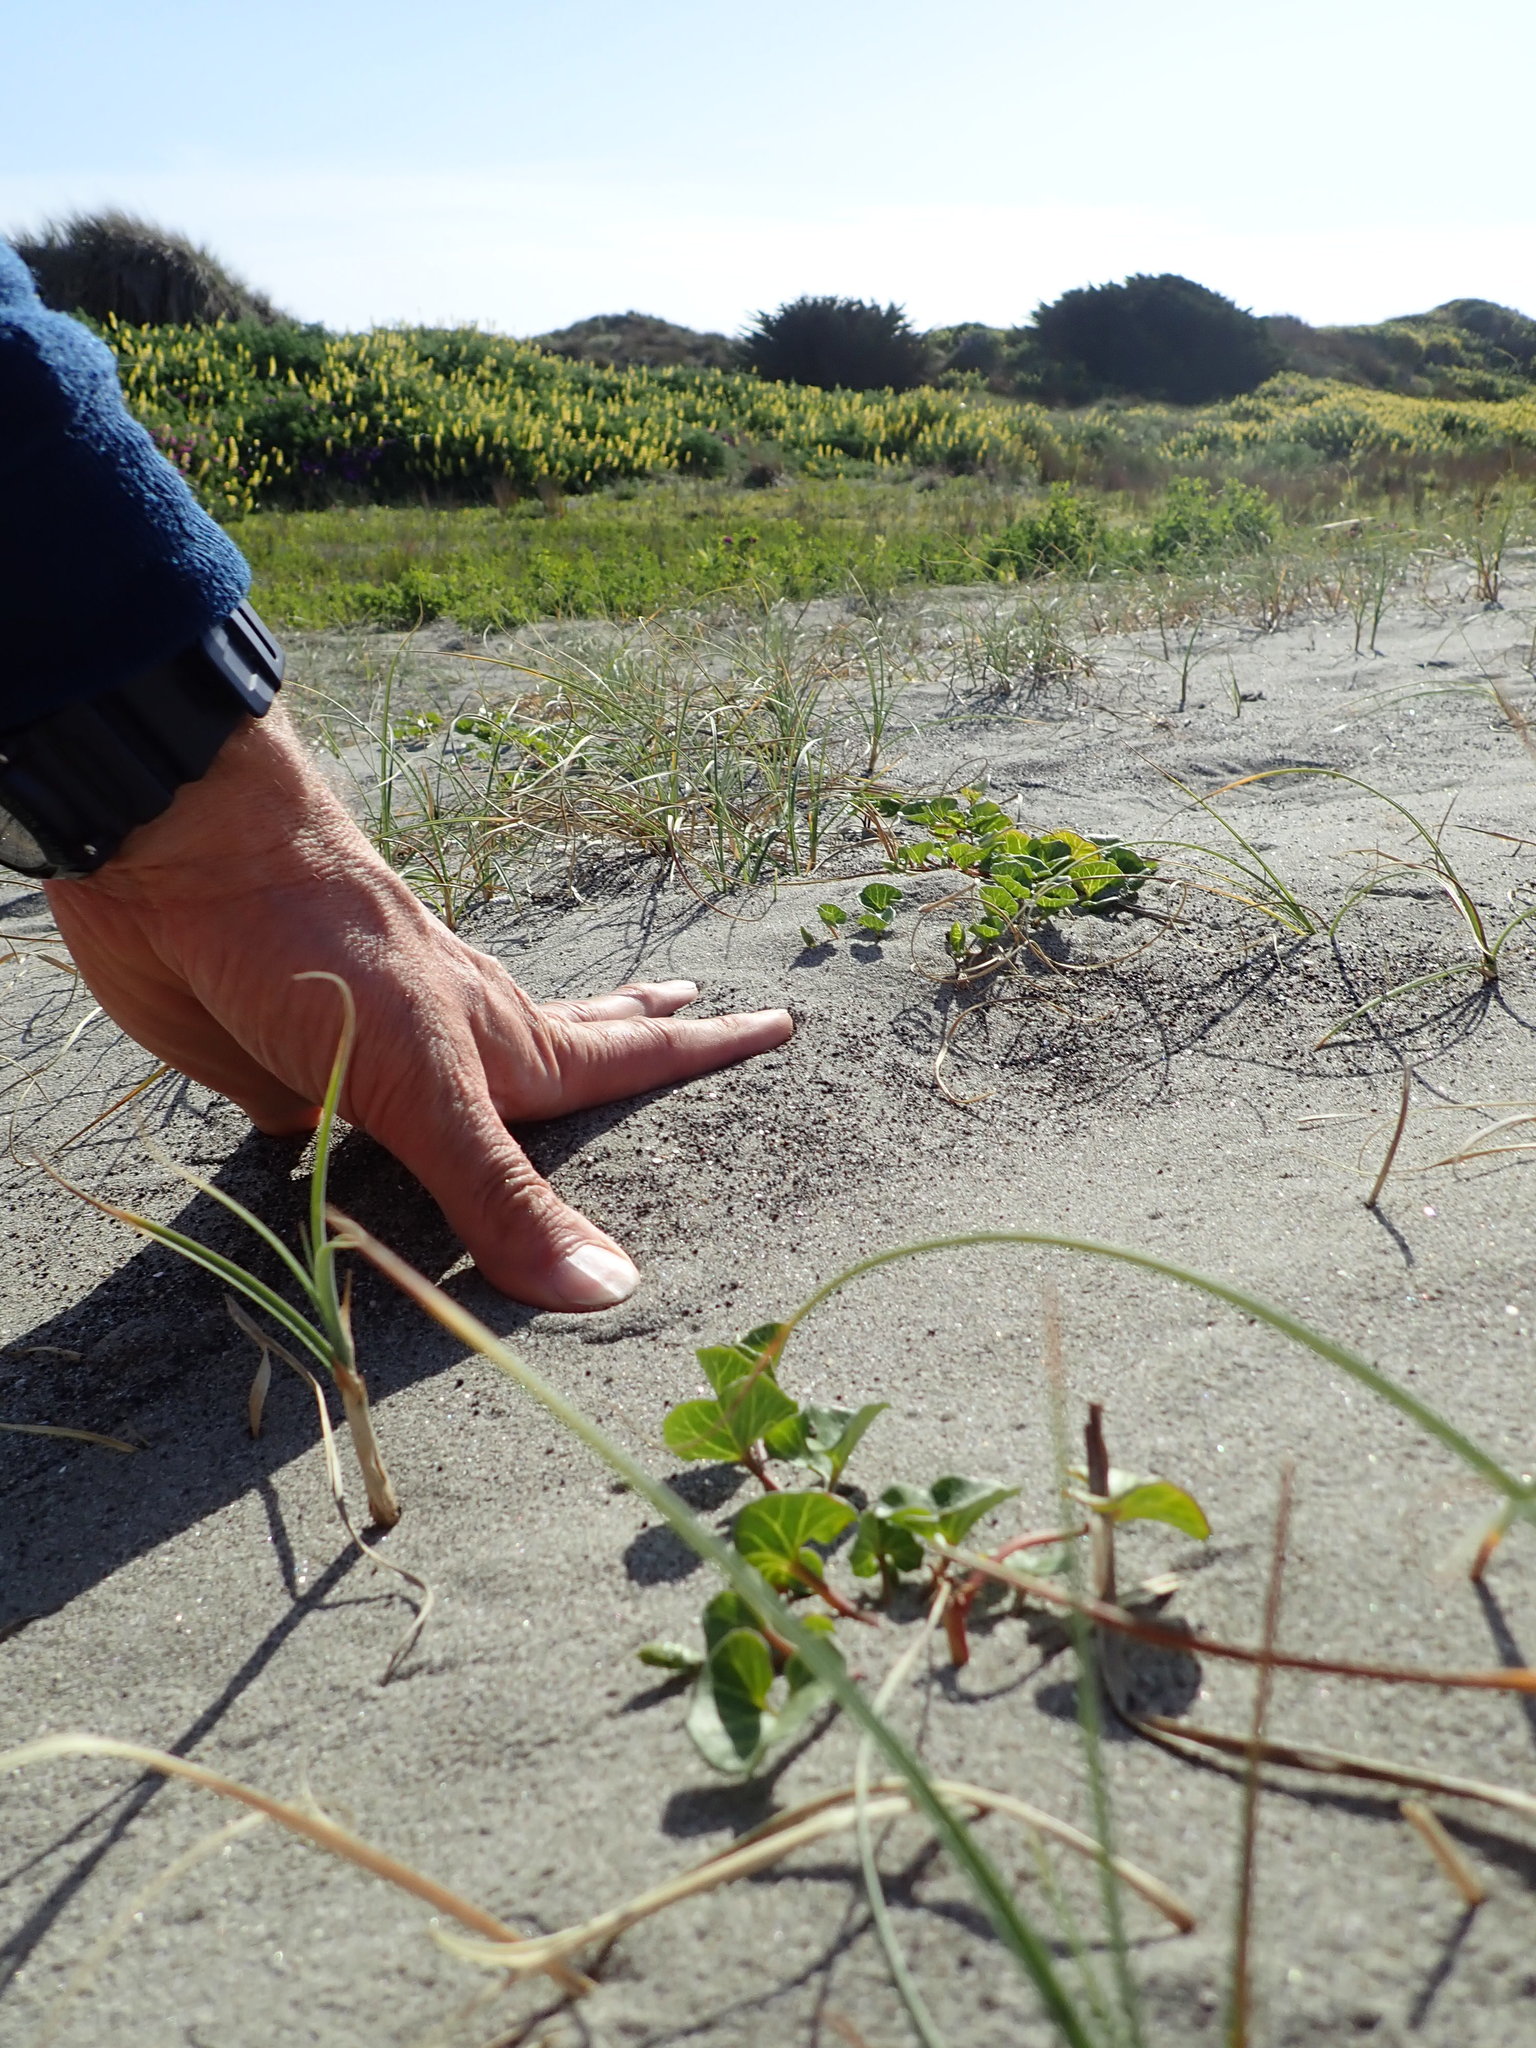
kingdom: Plantae
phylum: Tracheophyta
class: Magnoliopsida
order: Solanales
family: Convolvulaceae
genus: Calystegia
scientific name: Calystegia soldanella
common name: Sea bindweed
